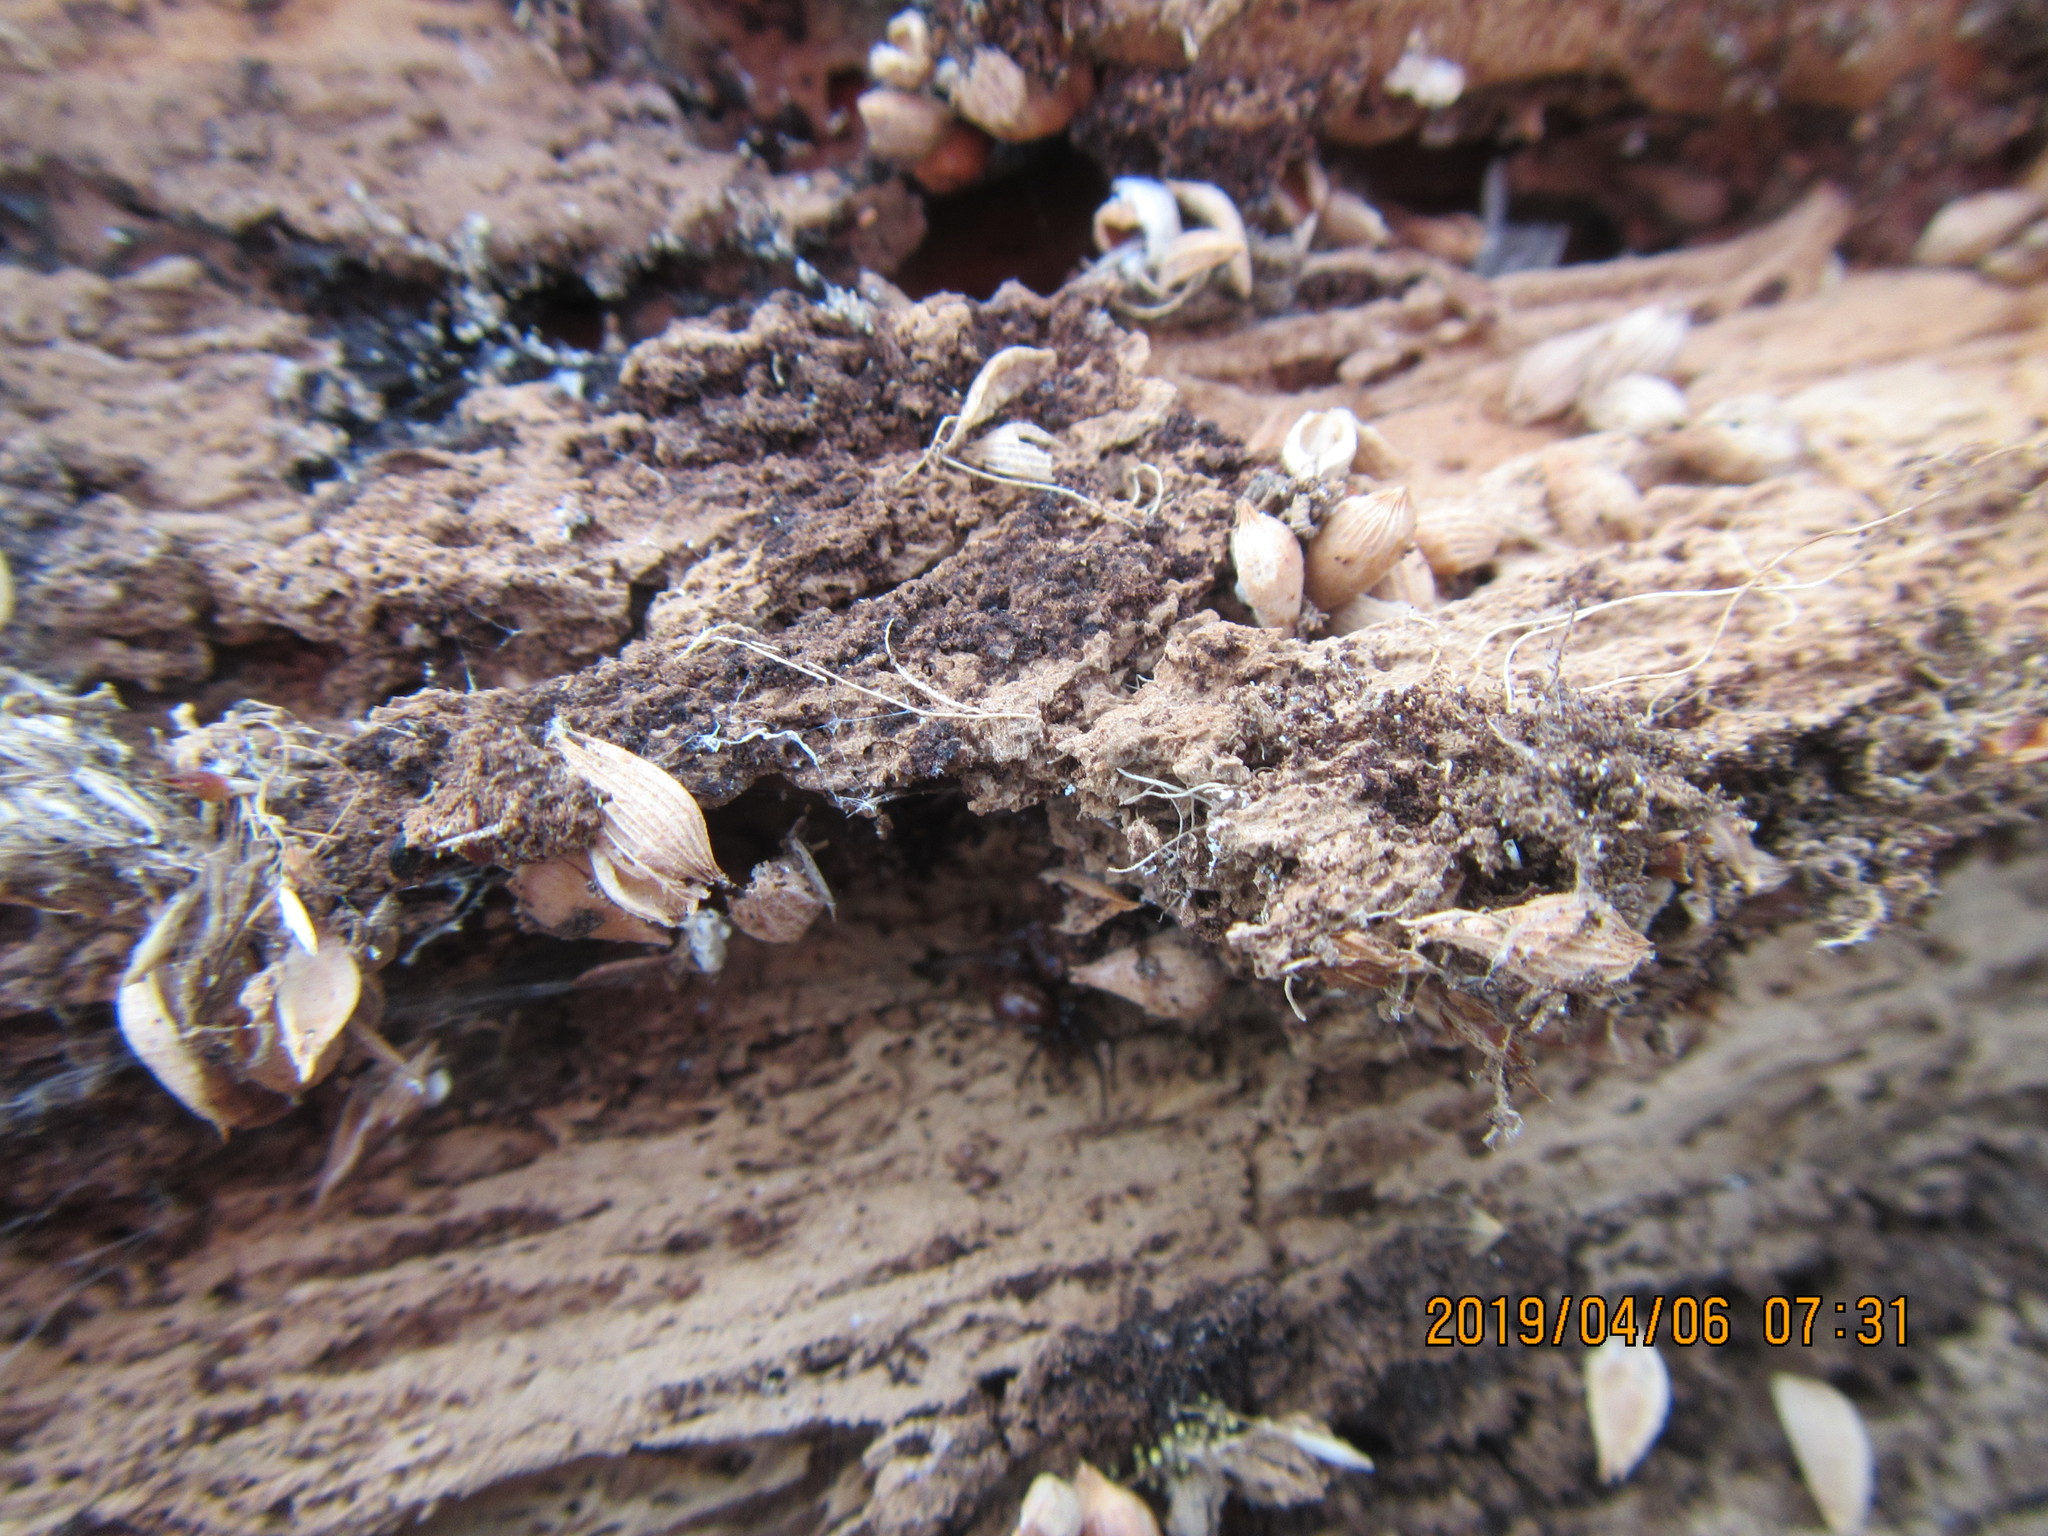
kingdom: Animalia
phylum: Arthropoda
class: Arachnida
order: Araneae
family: Theridiidae
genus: Steatoda
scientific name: Steatoda capensis
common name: Cobweb weaver
